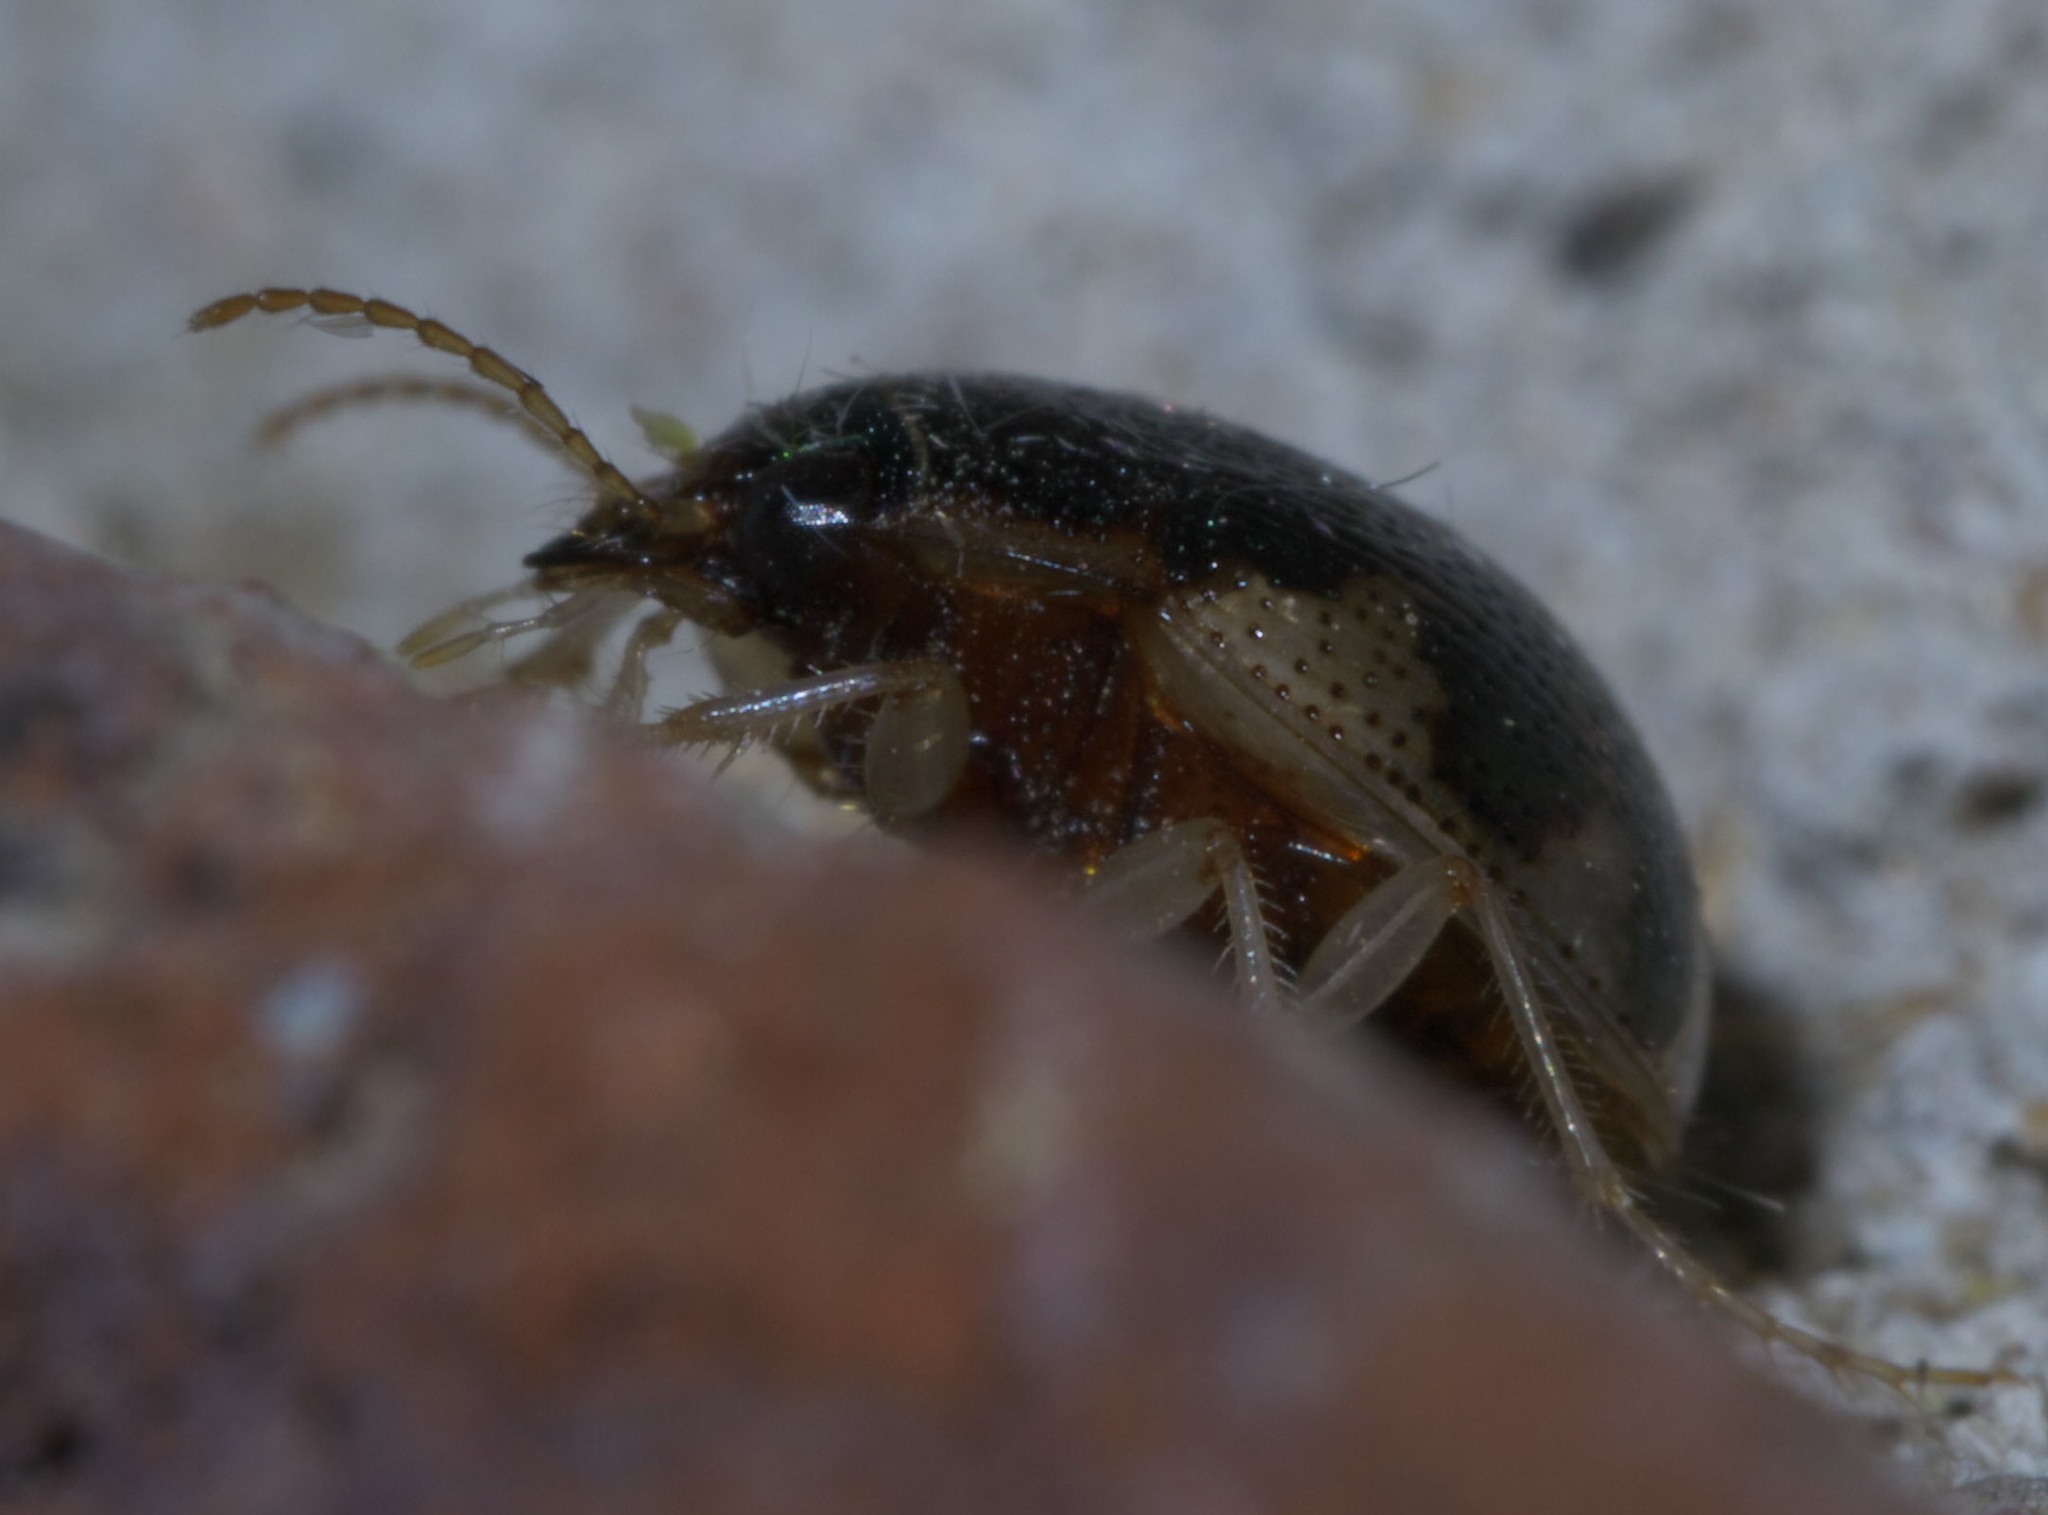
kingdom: Animalia
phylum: Arthropoda
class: Insecta
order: Coleoptera
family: Carabidae
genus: Omophron
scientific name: Omophron nitidum
